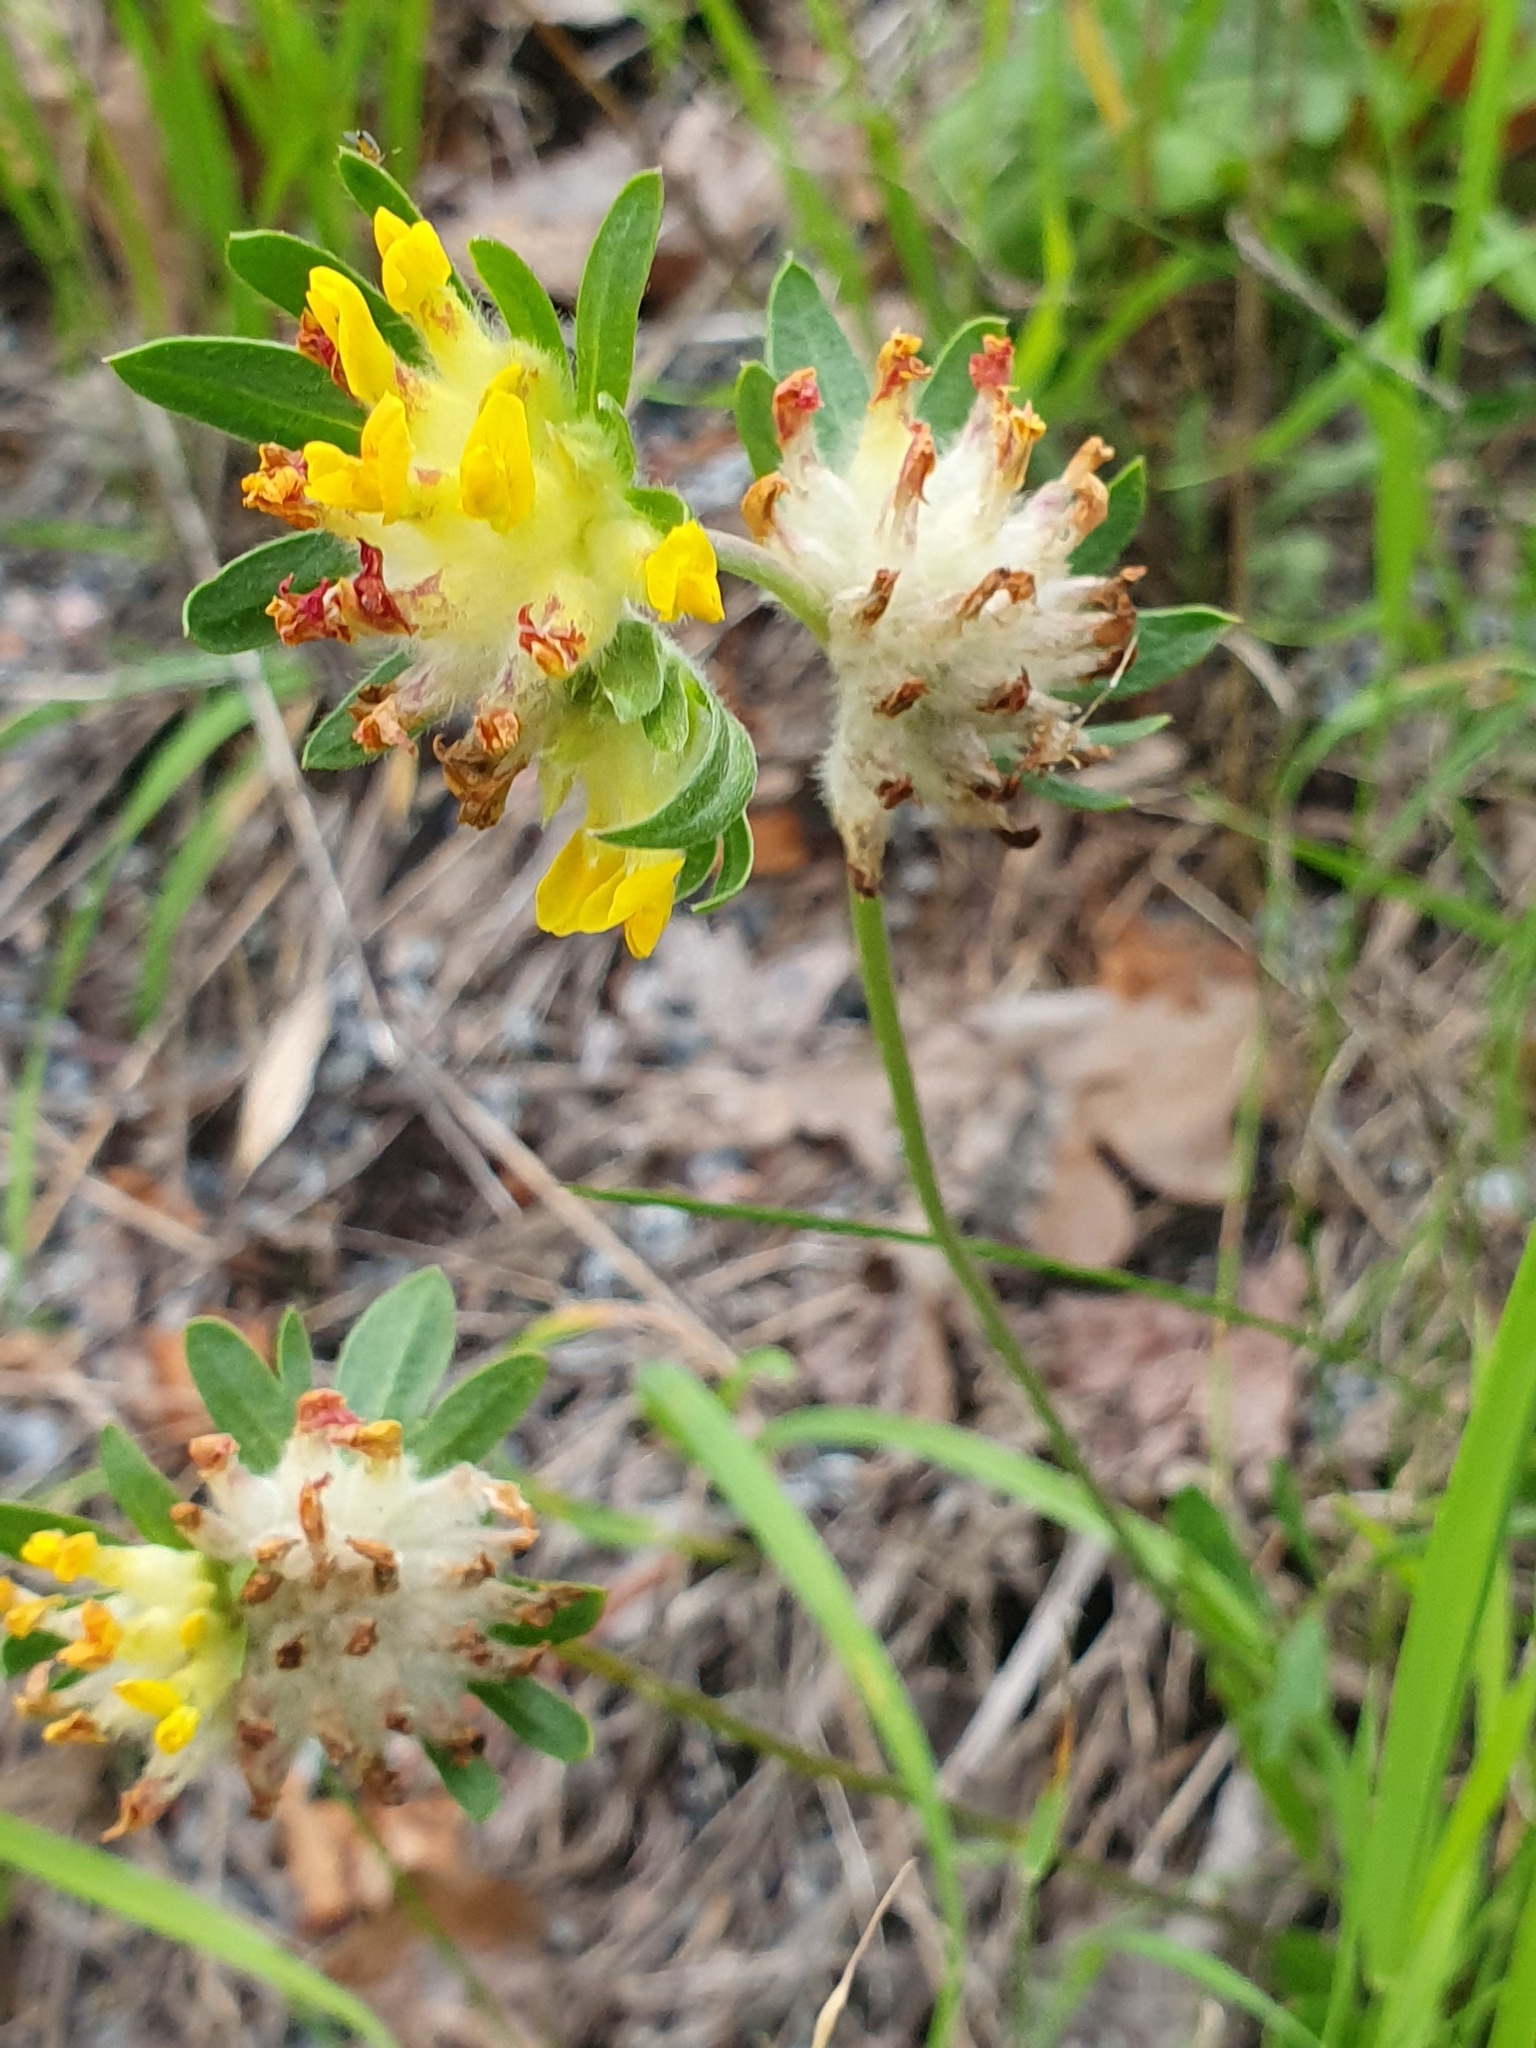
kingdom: Plantae
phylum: Tracheophyta
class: Magnoliopsida
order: Fabales
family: Fabaceae
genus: Anthyllis
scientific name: Anthyllis vulneraria
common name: Kidney vetch
